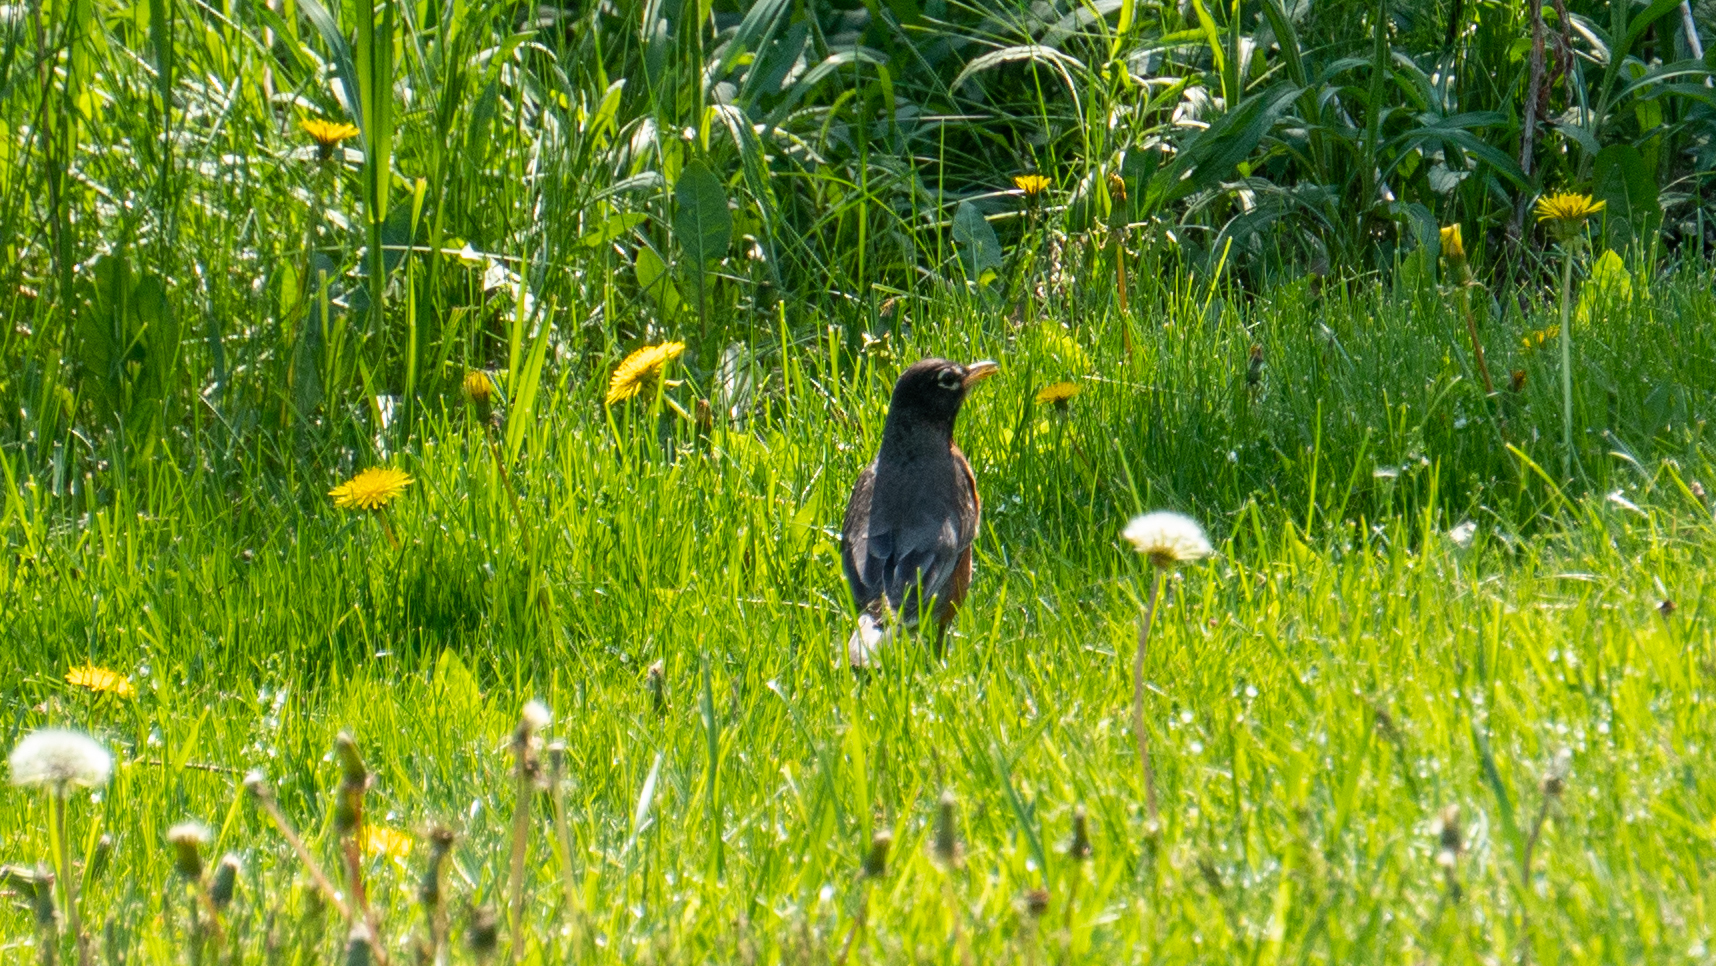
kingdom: Animalia
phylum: Chordata
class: Aves
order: Passeriformes
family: Turdidae
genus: Turdus
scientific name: Turdus migratorius
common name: American robin
